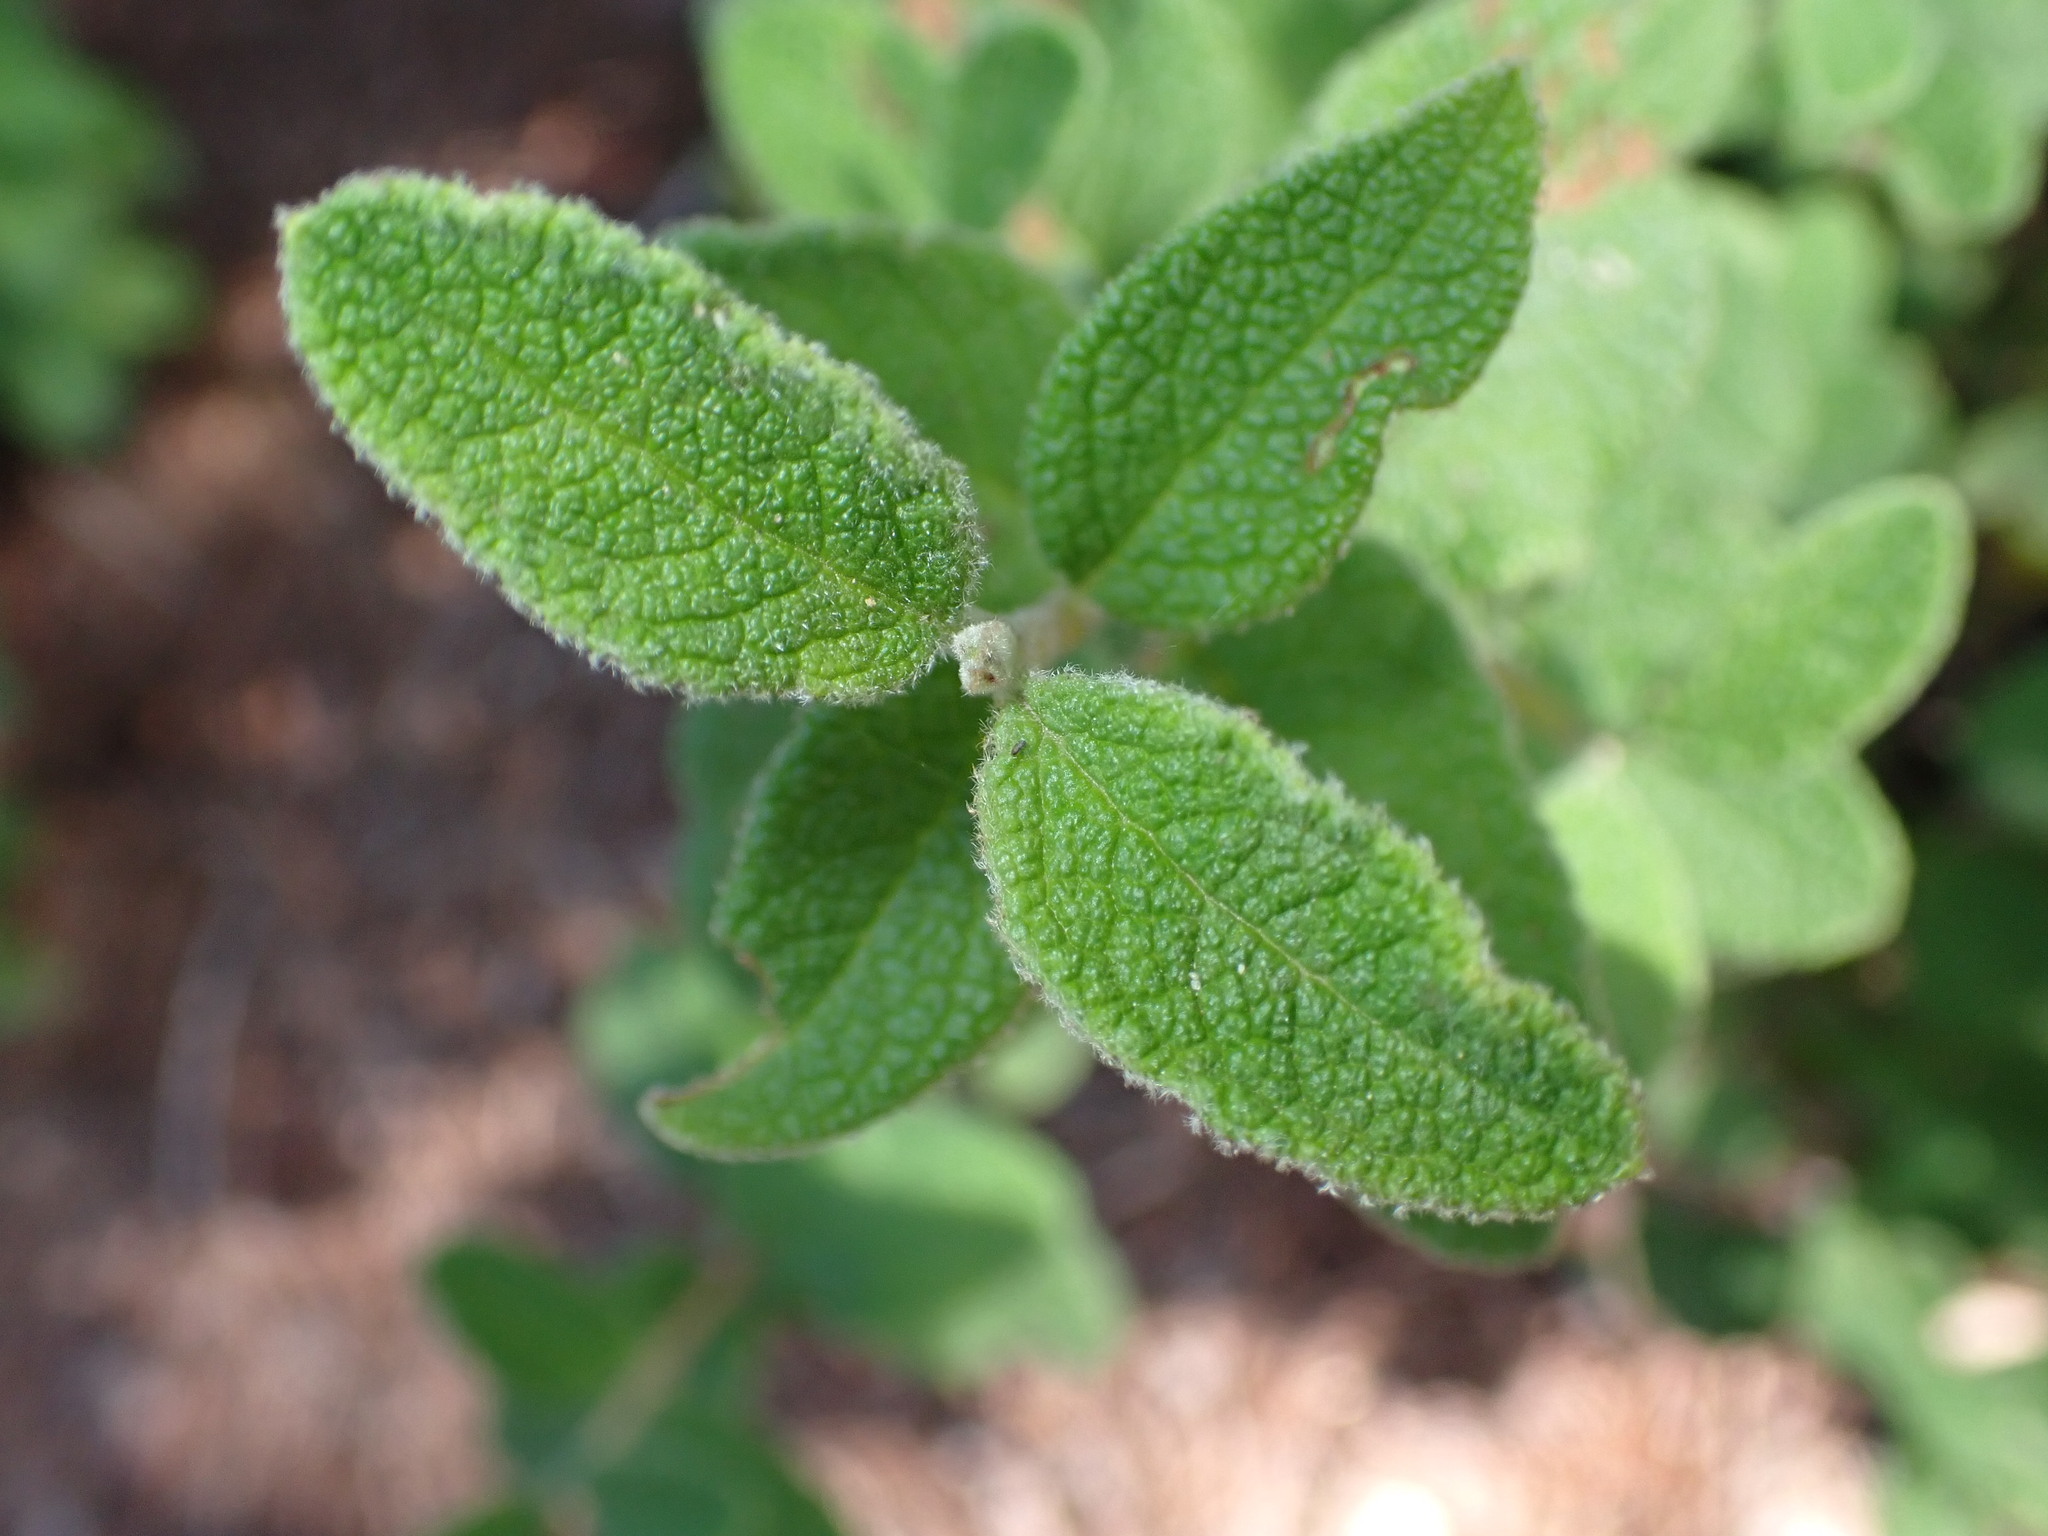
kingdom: Plantae
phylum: Tracheophyta
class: Magnoliopsida
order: Malvales
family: Cistaceae
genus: Cistus
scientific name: Cistus salviifolius
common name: Salvia cistus
